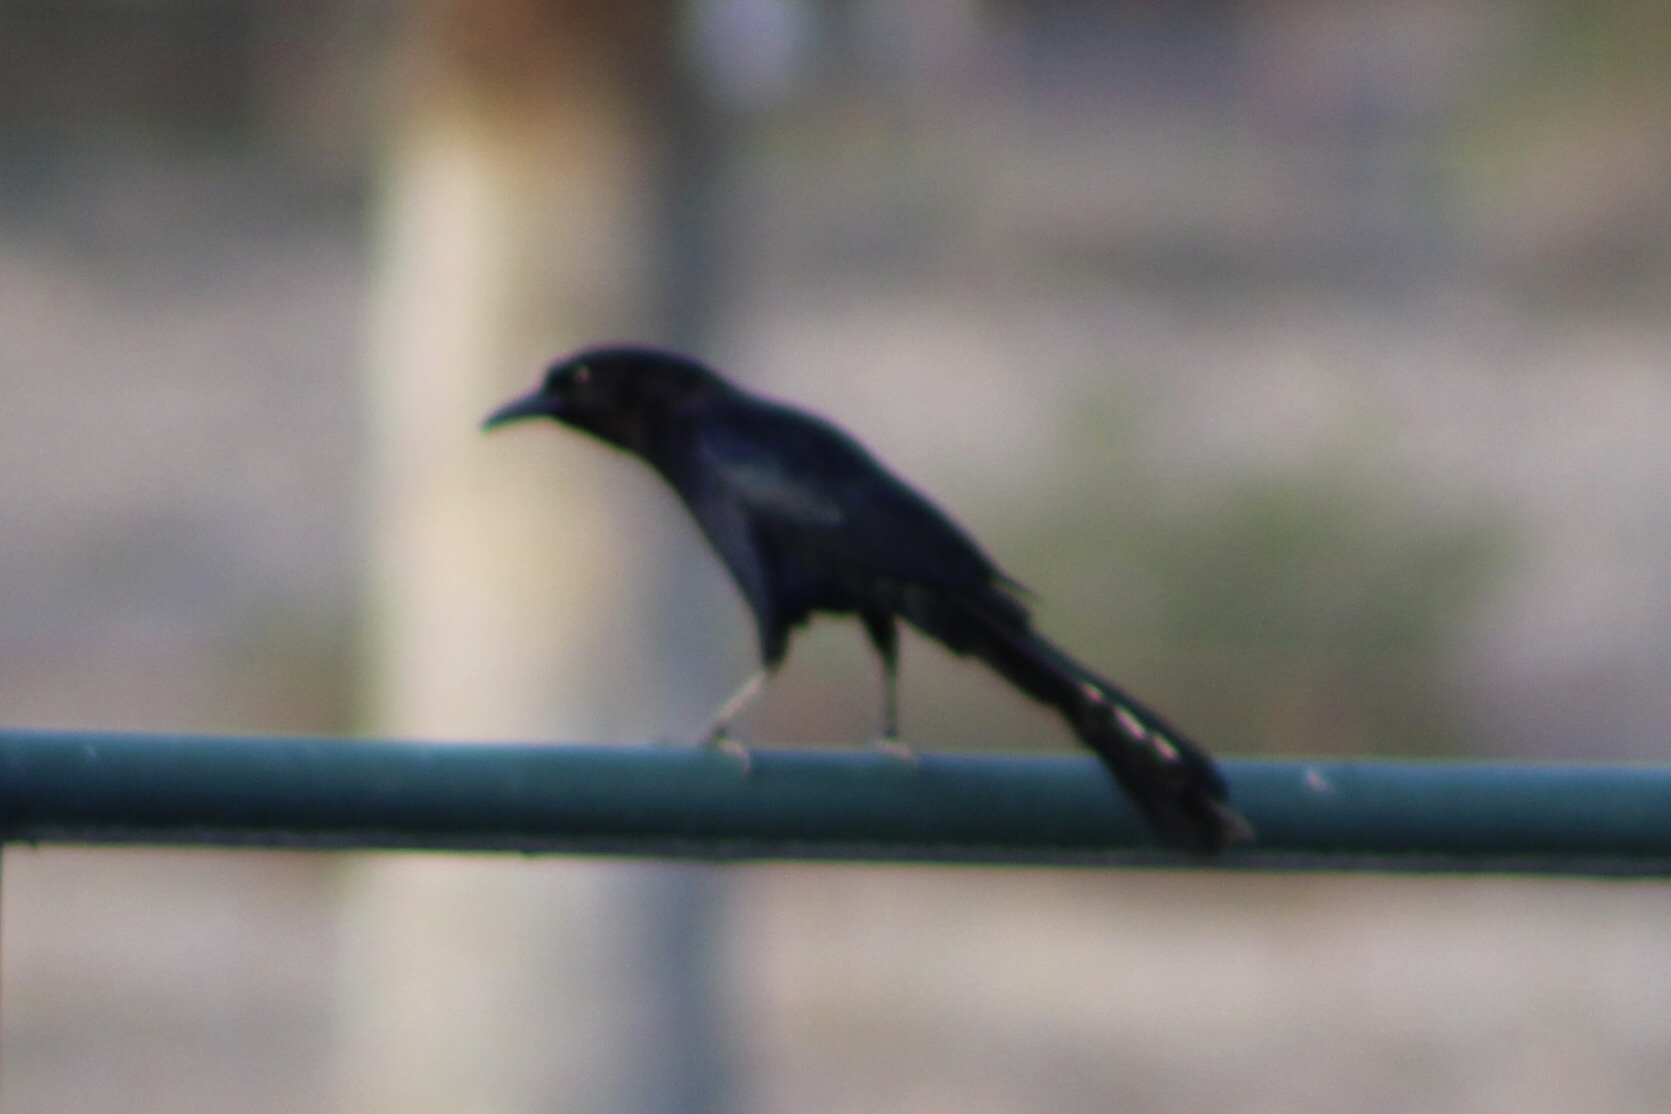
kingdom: Animalia
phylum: Chordata
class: Aves
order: Passeriformes
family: Icteridae
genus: Quiscalus
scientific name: Quiscalus mexicanus
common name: Great-tailed grackle
